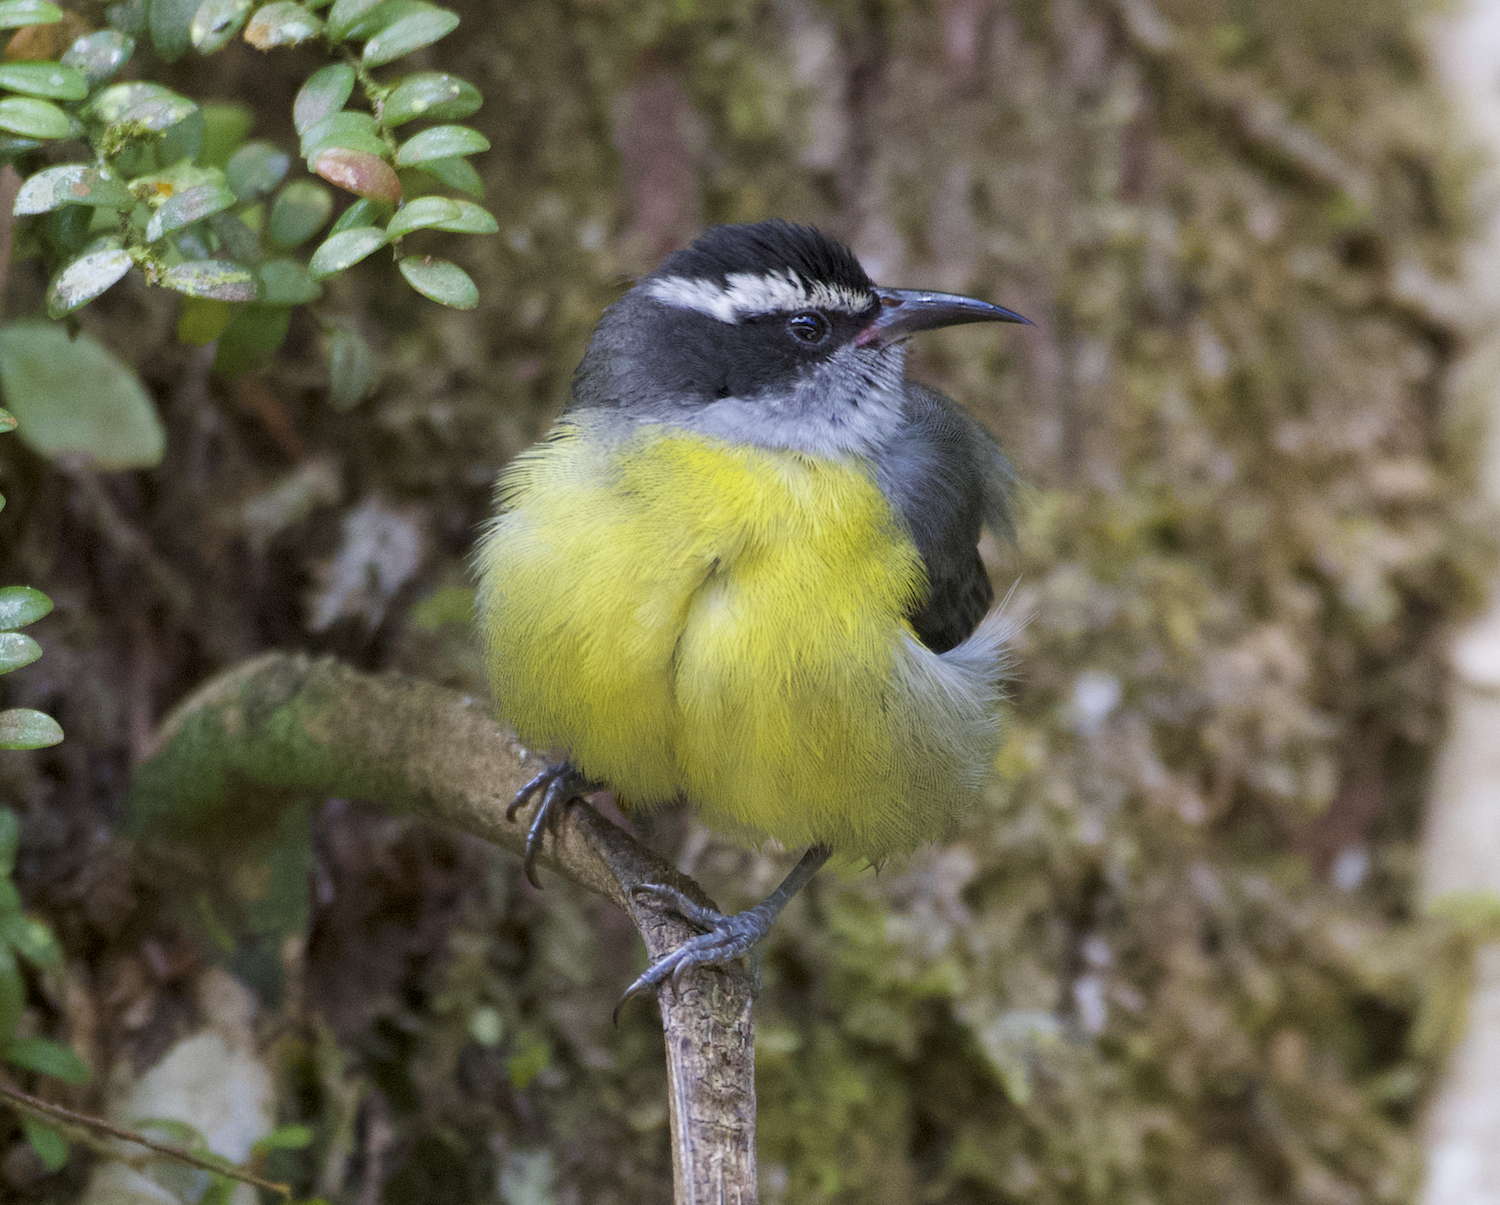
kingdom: Animalia
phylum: Chordata
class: Aves
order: Passeriformes
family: Thraupidae
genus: Coereba
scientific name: Coereba flaveola
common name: Bananaquit
